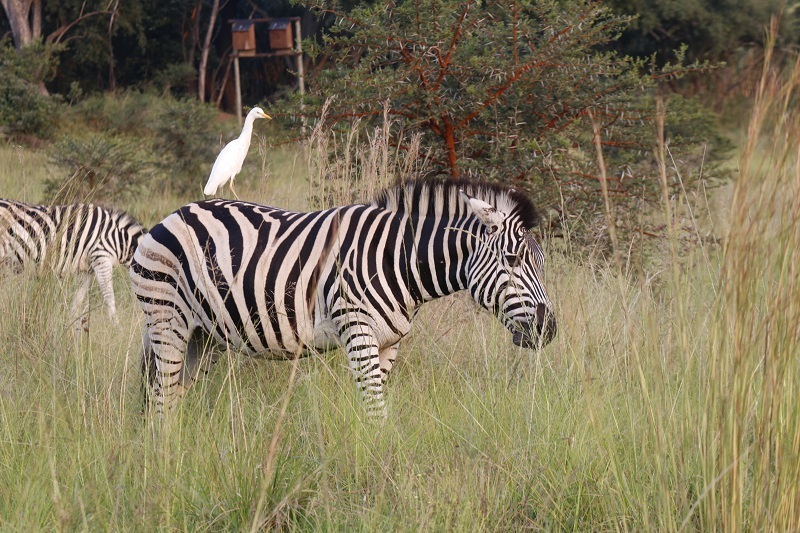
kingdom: Animalia
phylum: Chordata
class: Mammalia
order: Perissodactyla
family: Equidae
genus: Equus
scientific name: Equus quagga
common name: Plains zebra
